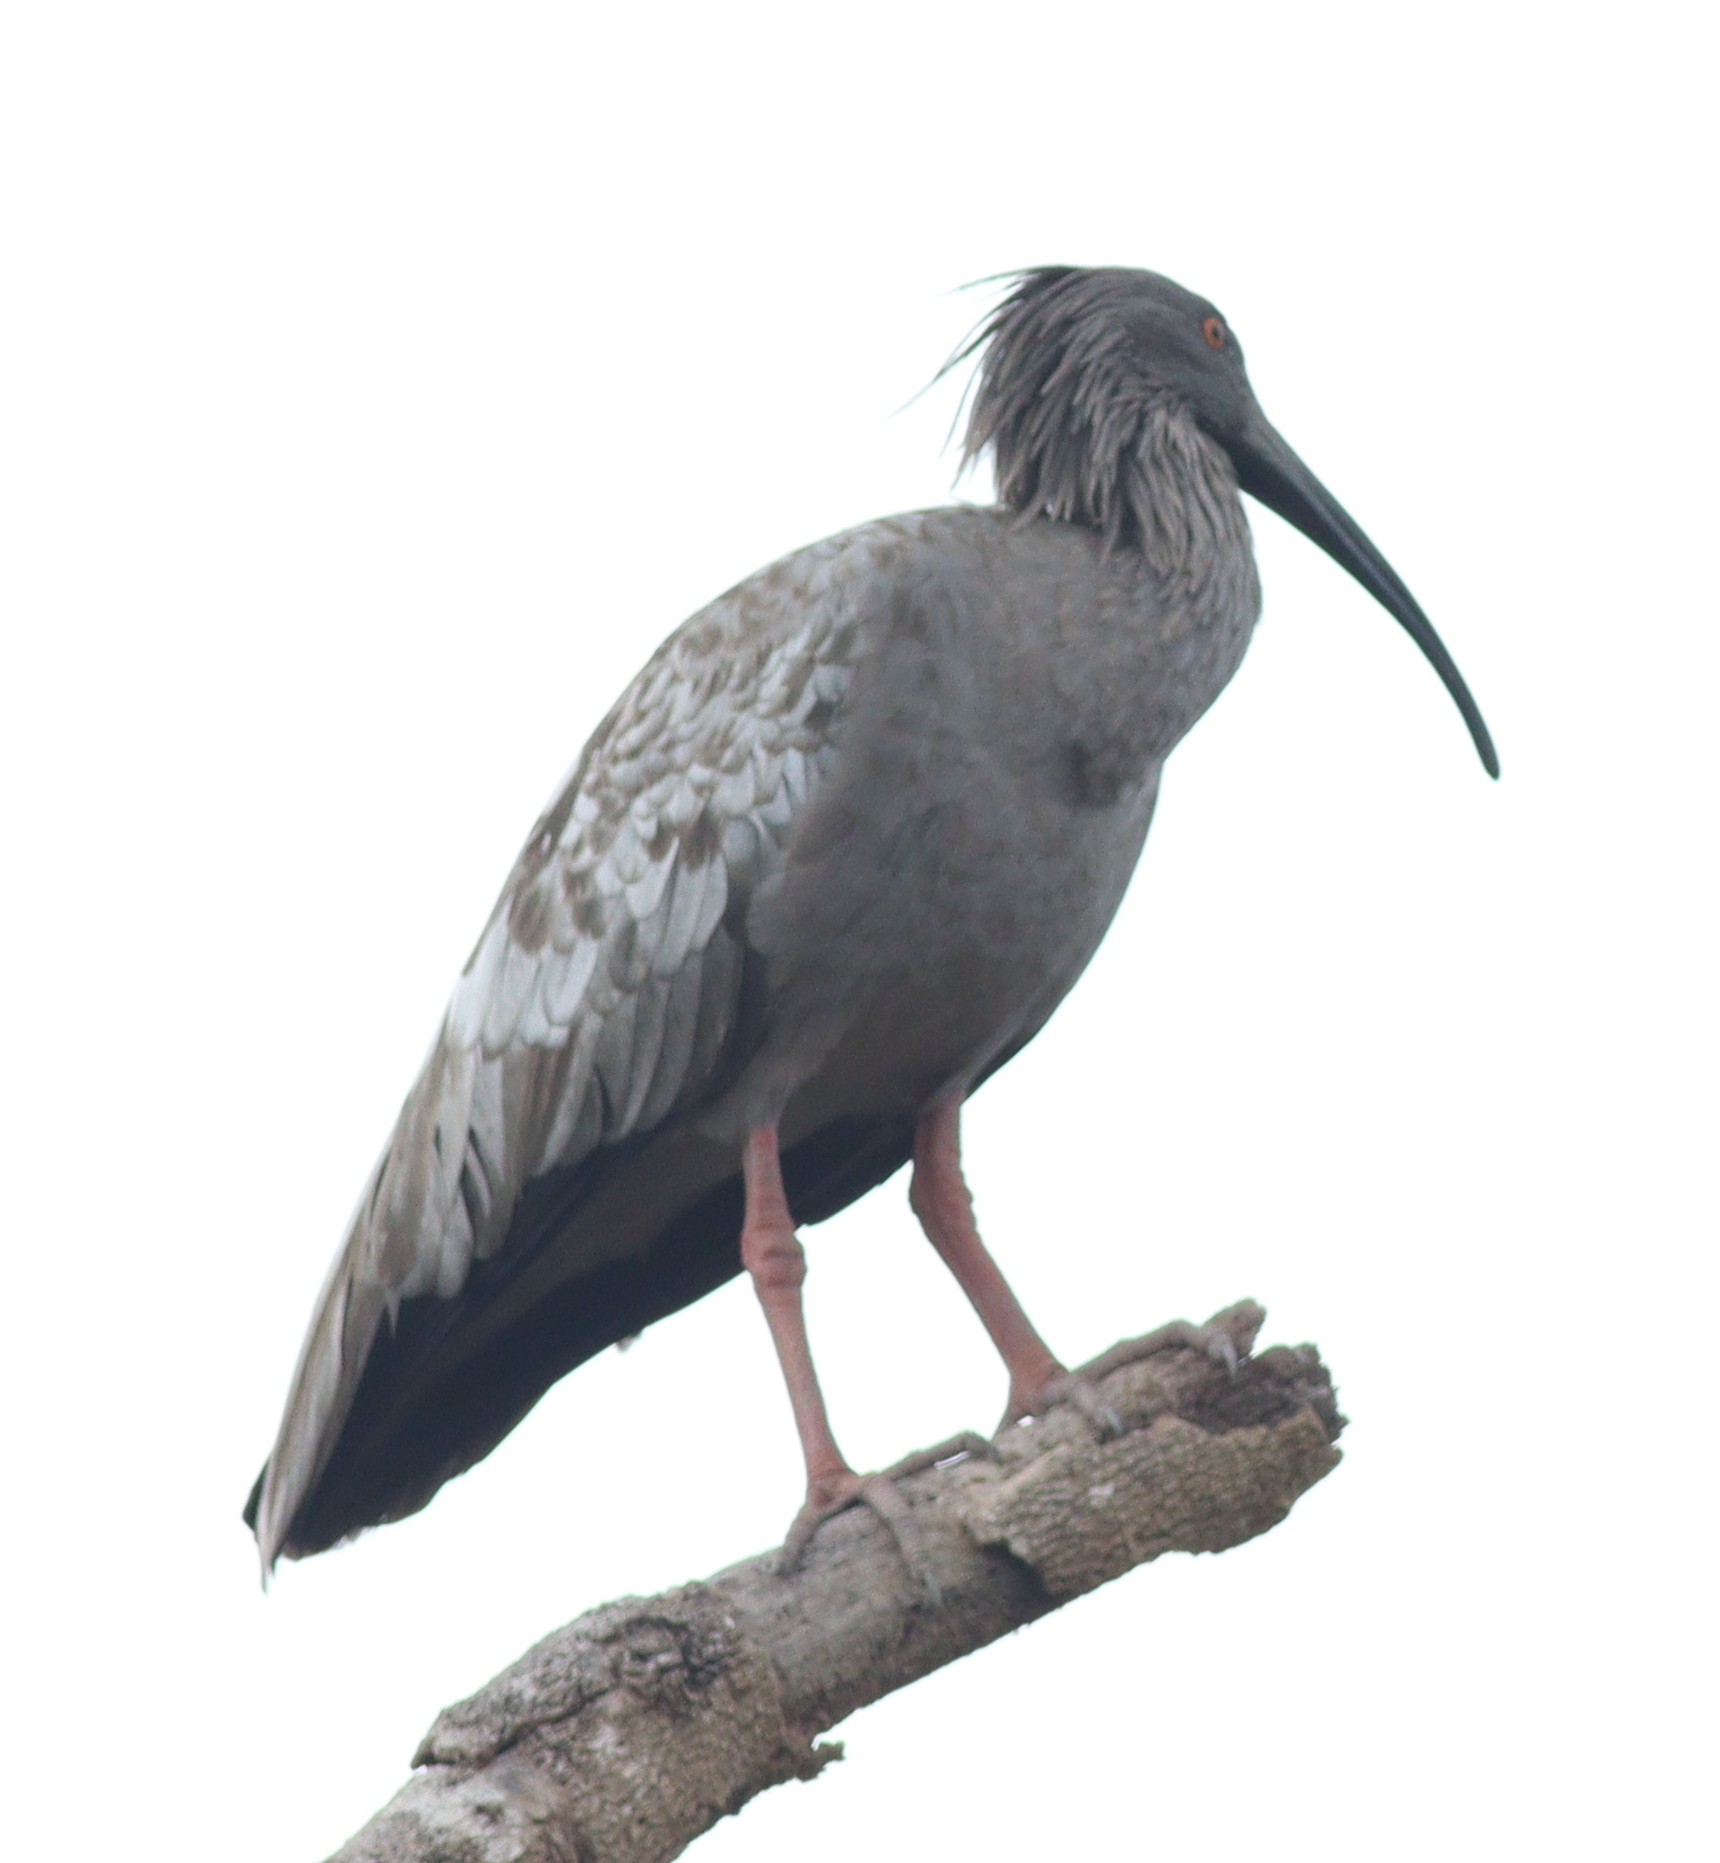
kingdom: Animalia
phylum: Chordata
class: Aves
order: Pelecaniformes
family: Threskiornithidae
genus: Theristicus
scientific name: Theristicus caerulescens
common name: Plumbeous ibis
